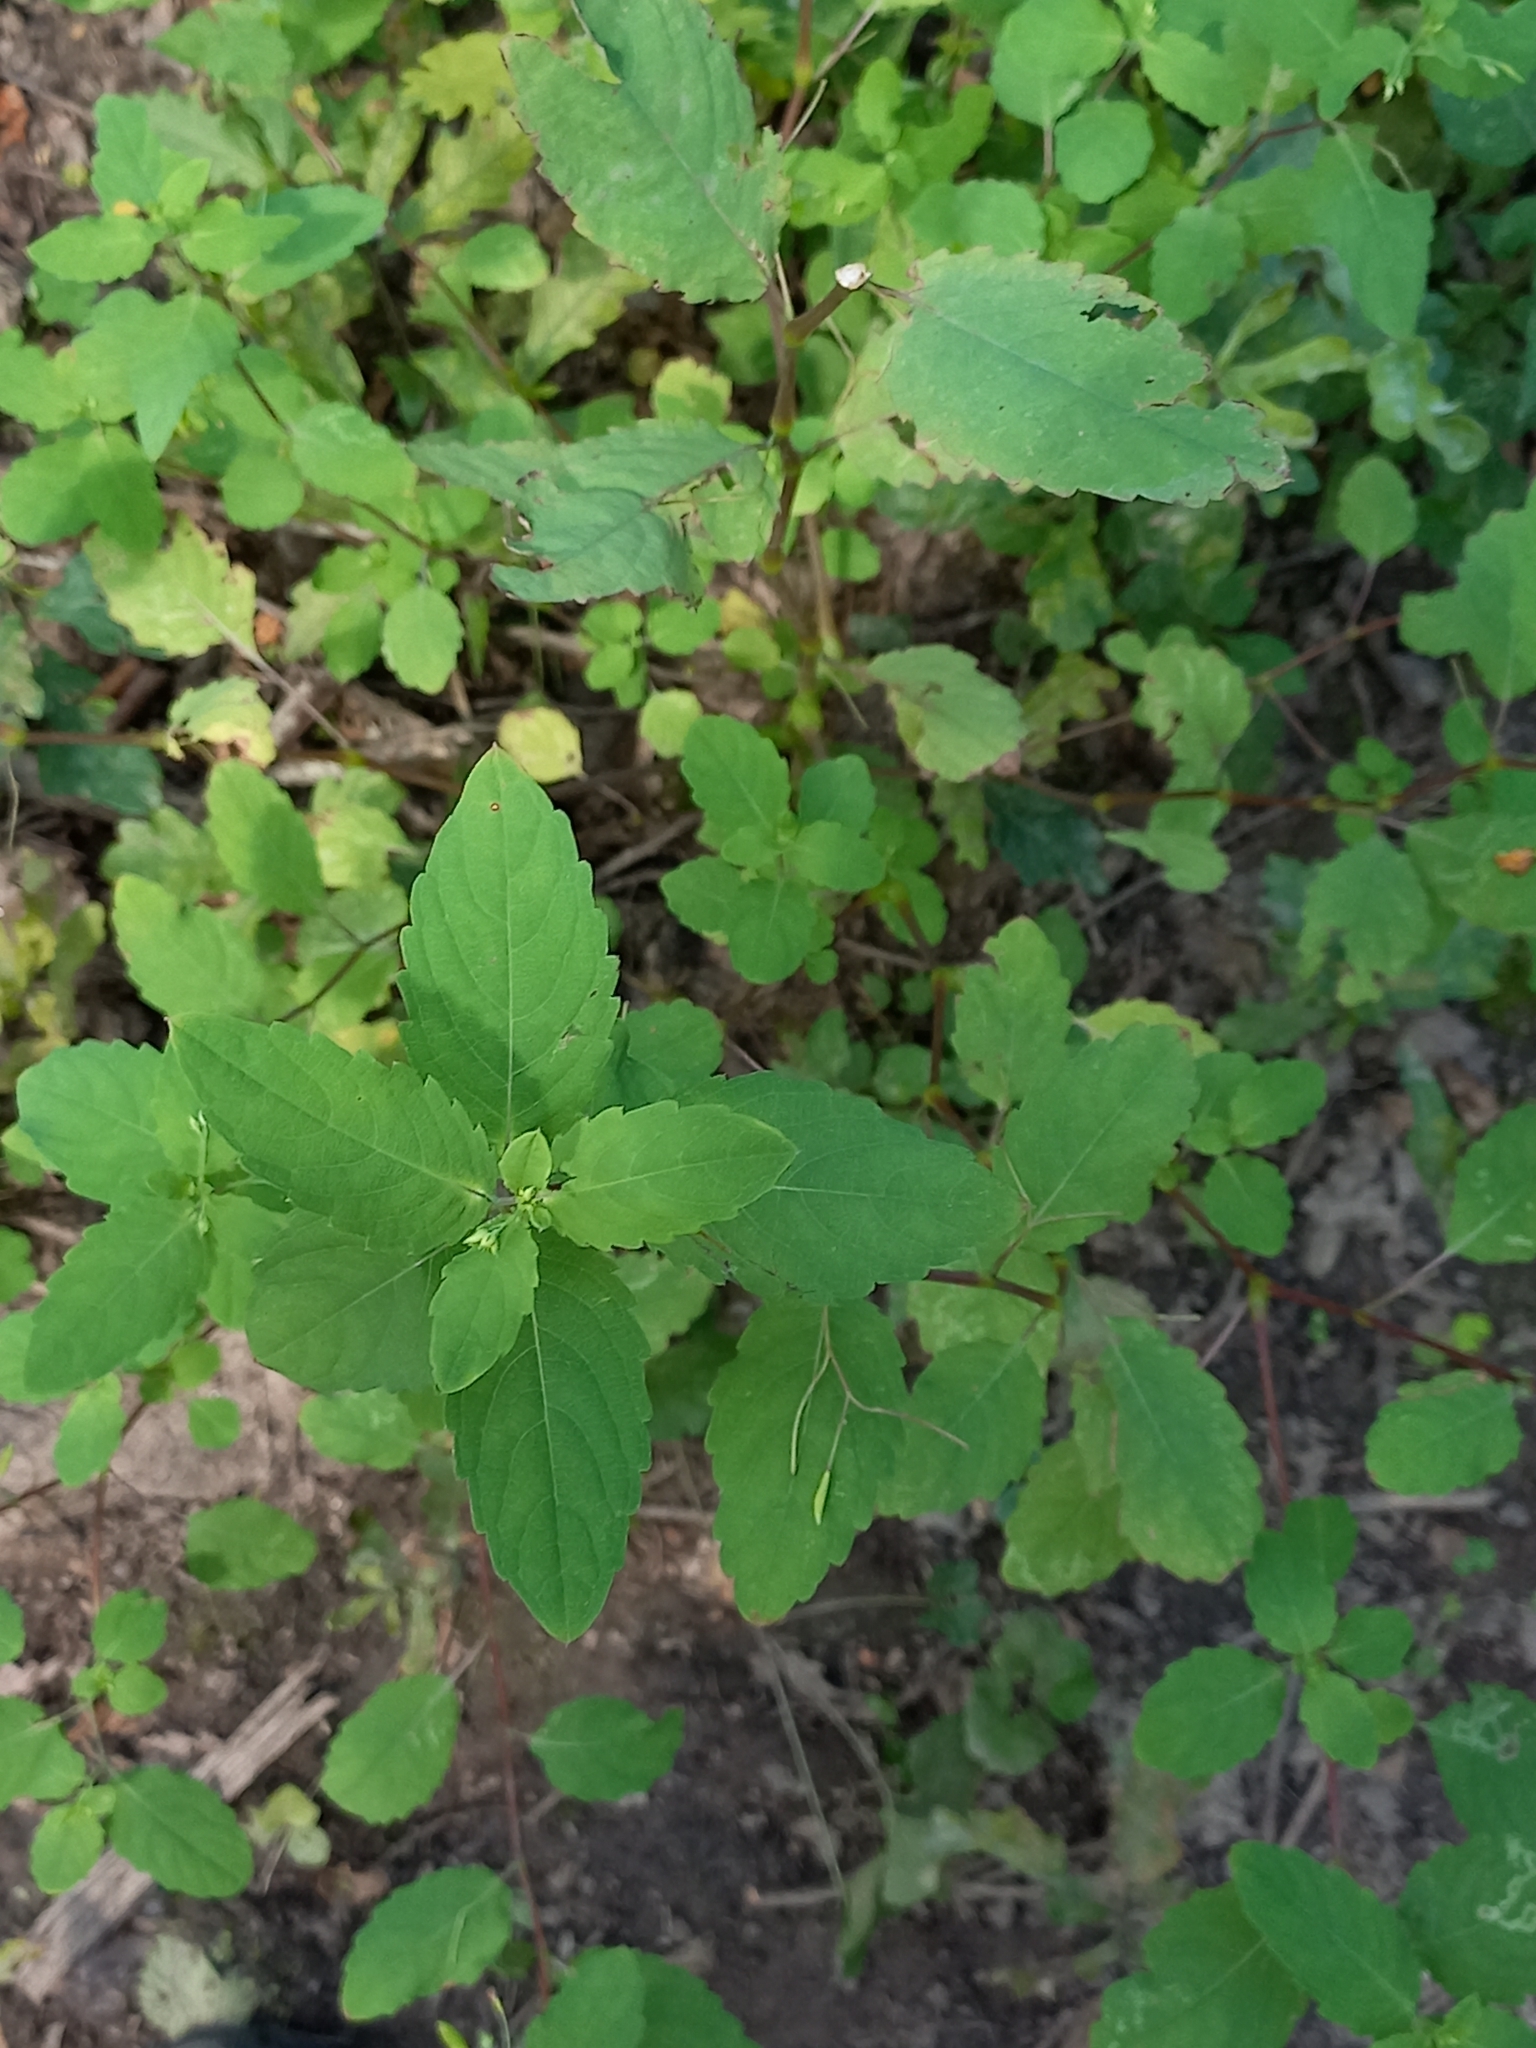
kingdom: Plantae
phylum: Tracheophyta
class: Magnoliopsida
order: Ericales
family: Balsaminaceae
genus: Impatiens
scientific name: Impatiens noli-tangere
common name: Touch-me-not balsam
